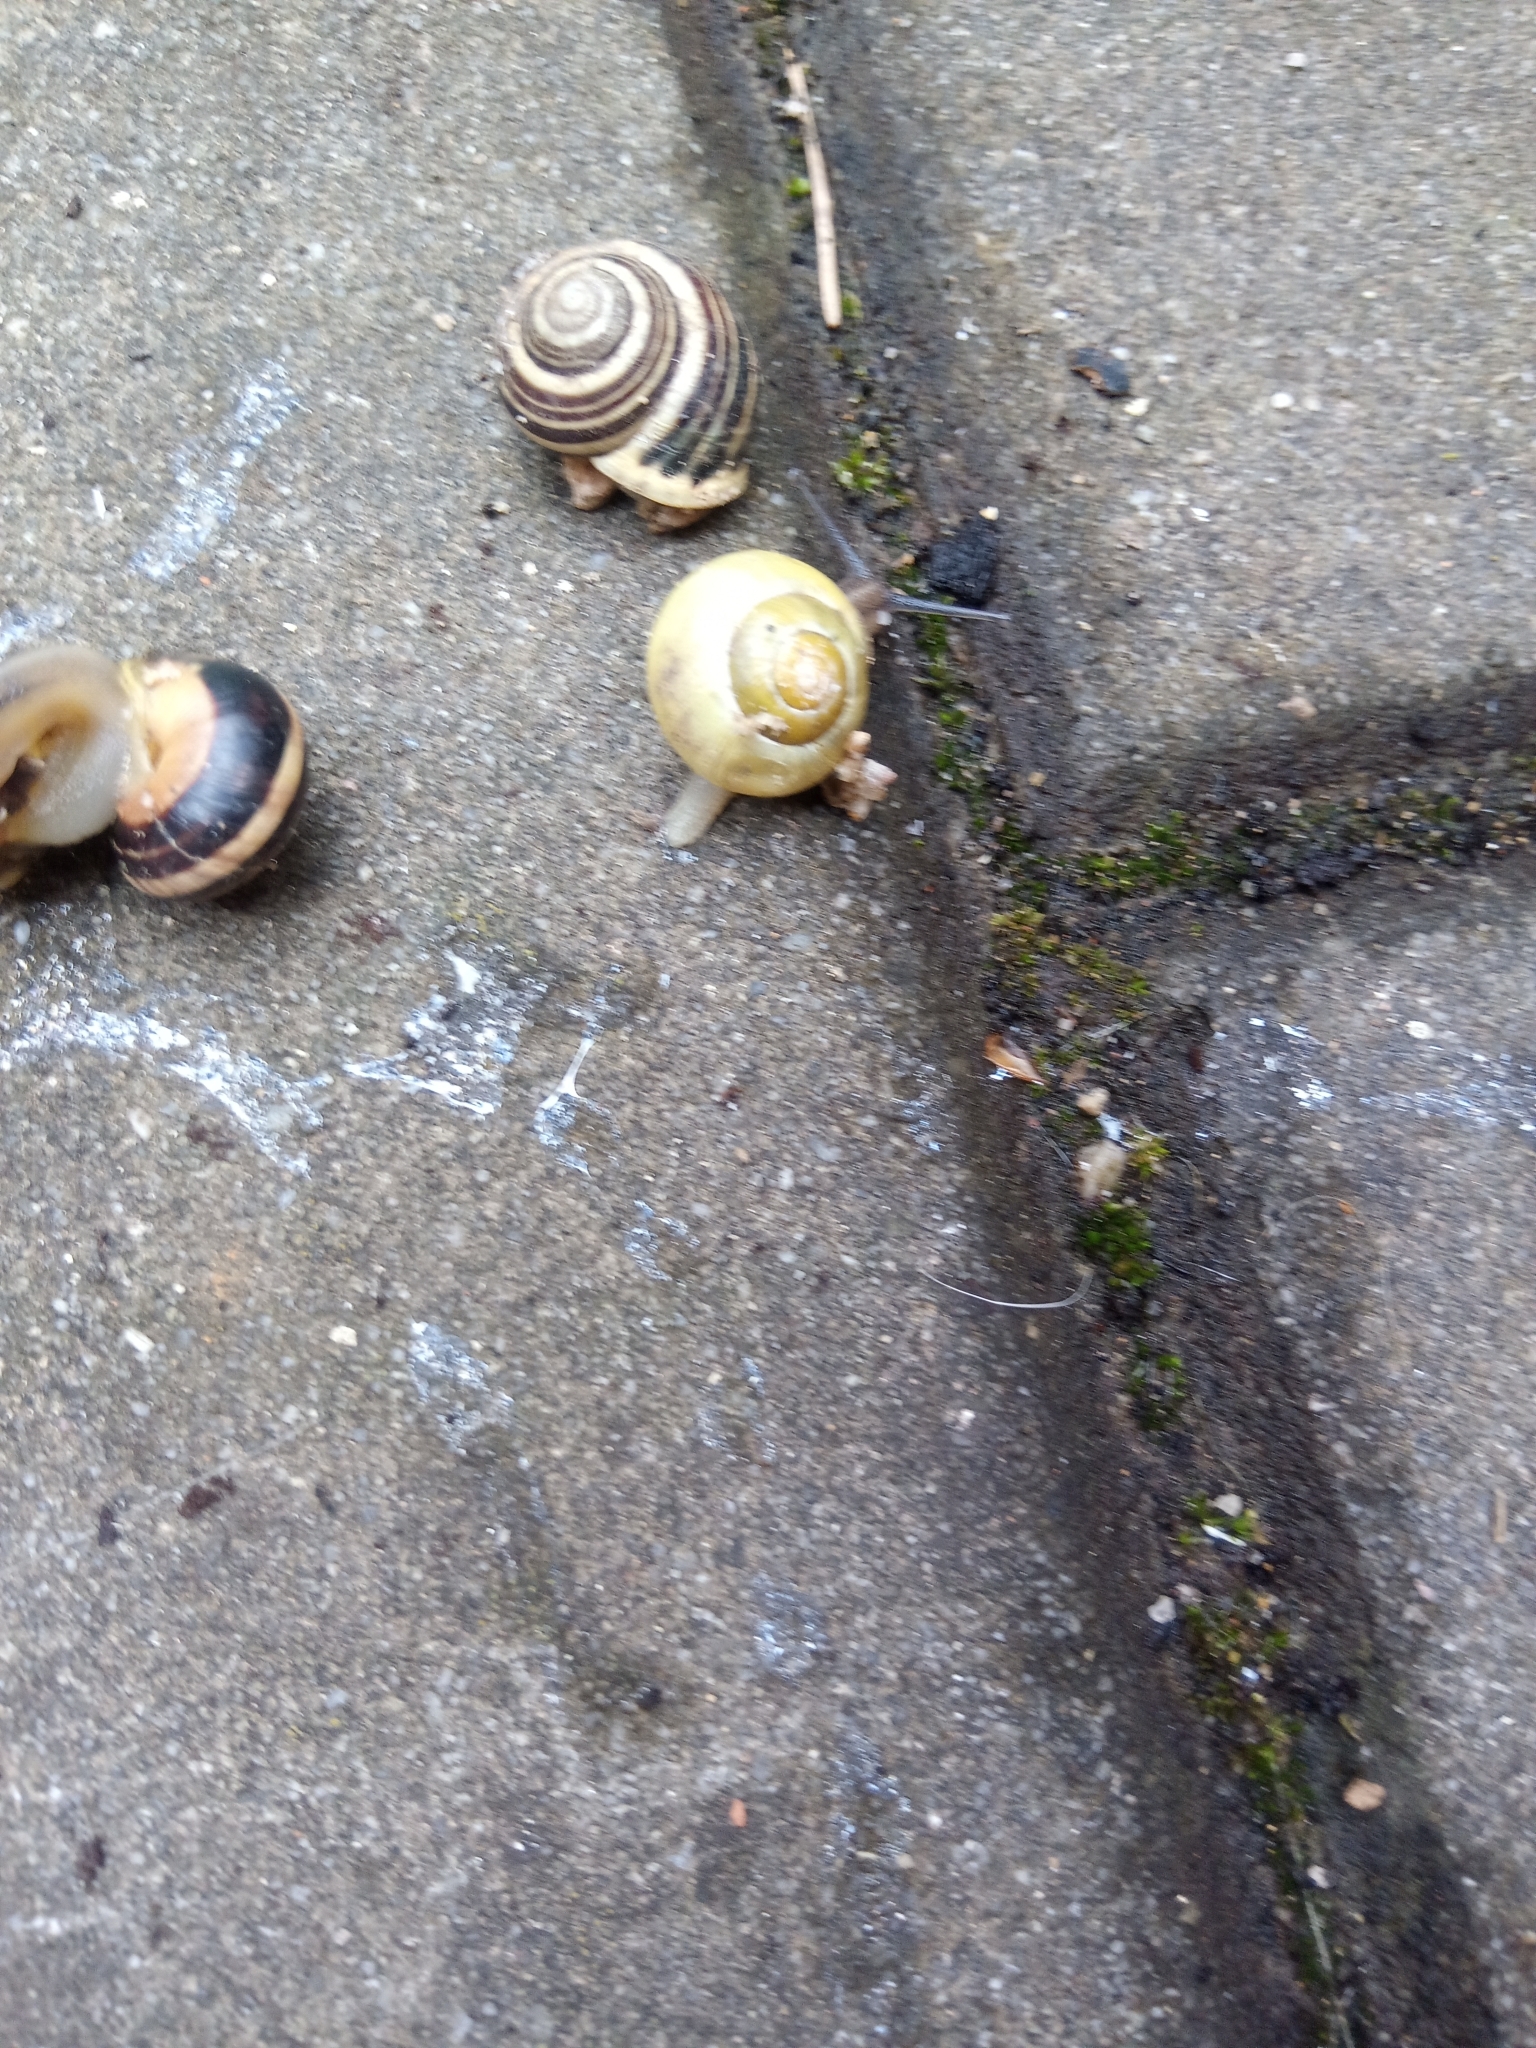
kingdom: Animalia
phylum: Mollusca
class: Gastropoda
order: Stylommatophora
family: Helicidae
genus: Cepaea
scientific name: Cepaea nemoralis
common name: Grovesnail
